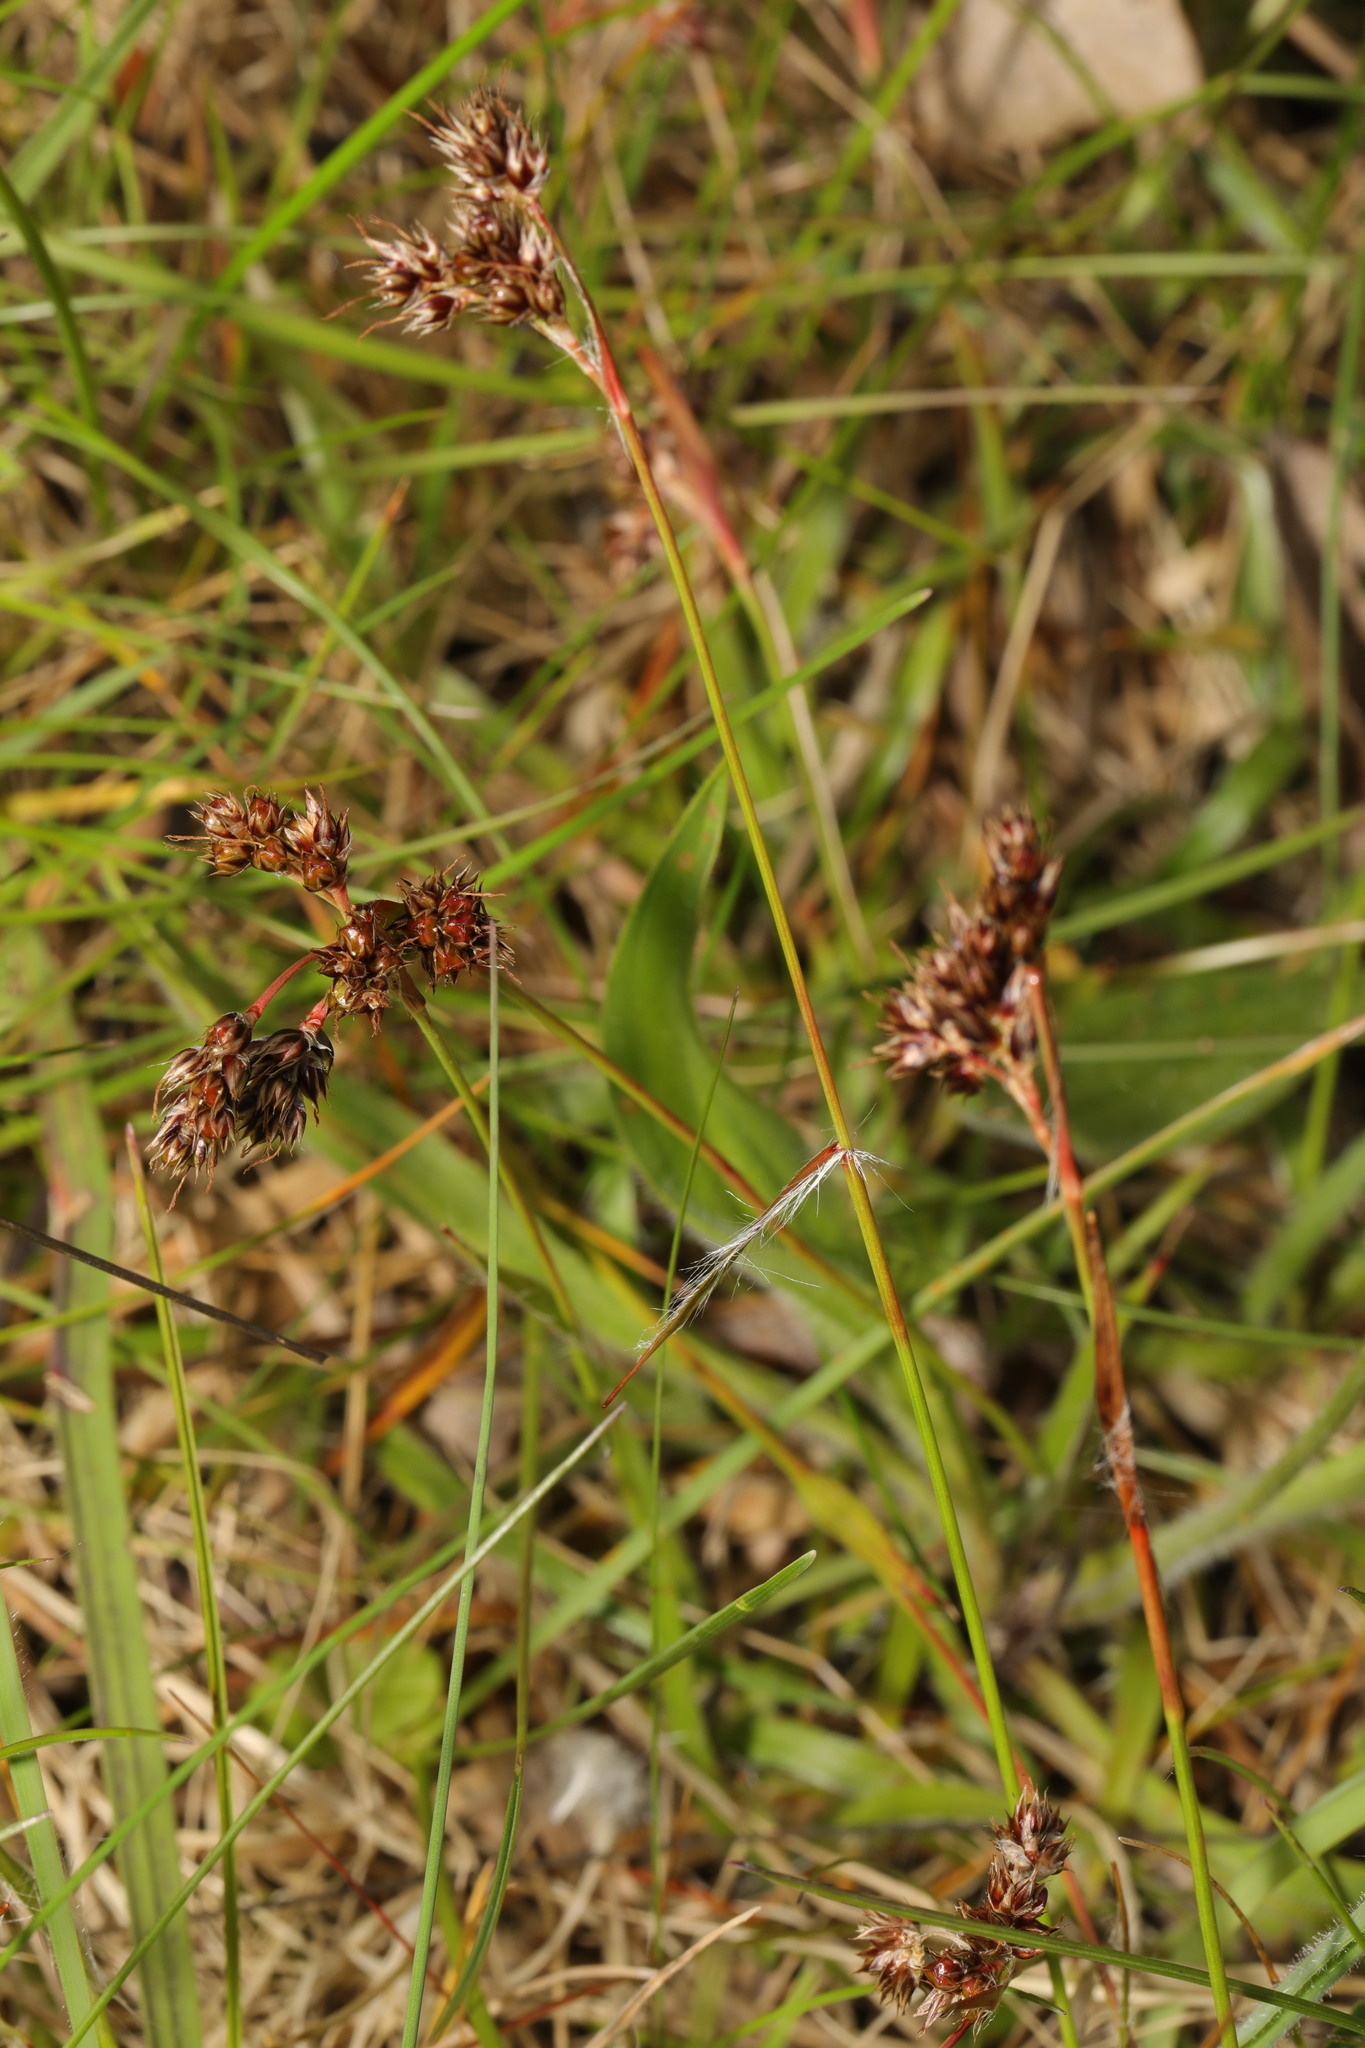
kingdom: Plantae
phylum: Tracheophyta
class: Liliopsida
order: Poales
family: Juncaceae
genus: Luzula
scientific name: Luzula campestris
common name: Field wood-rush
